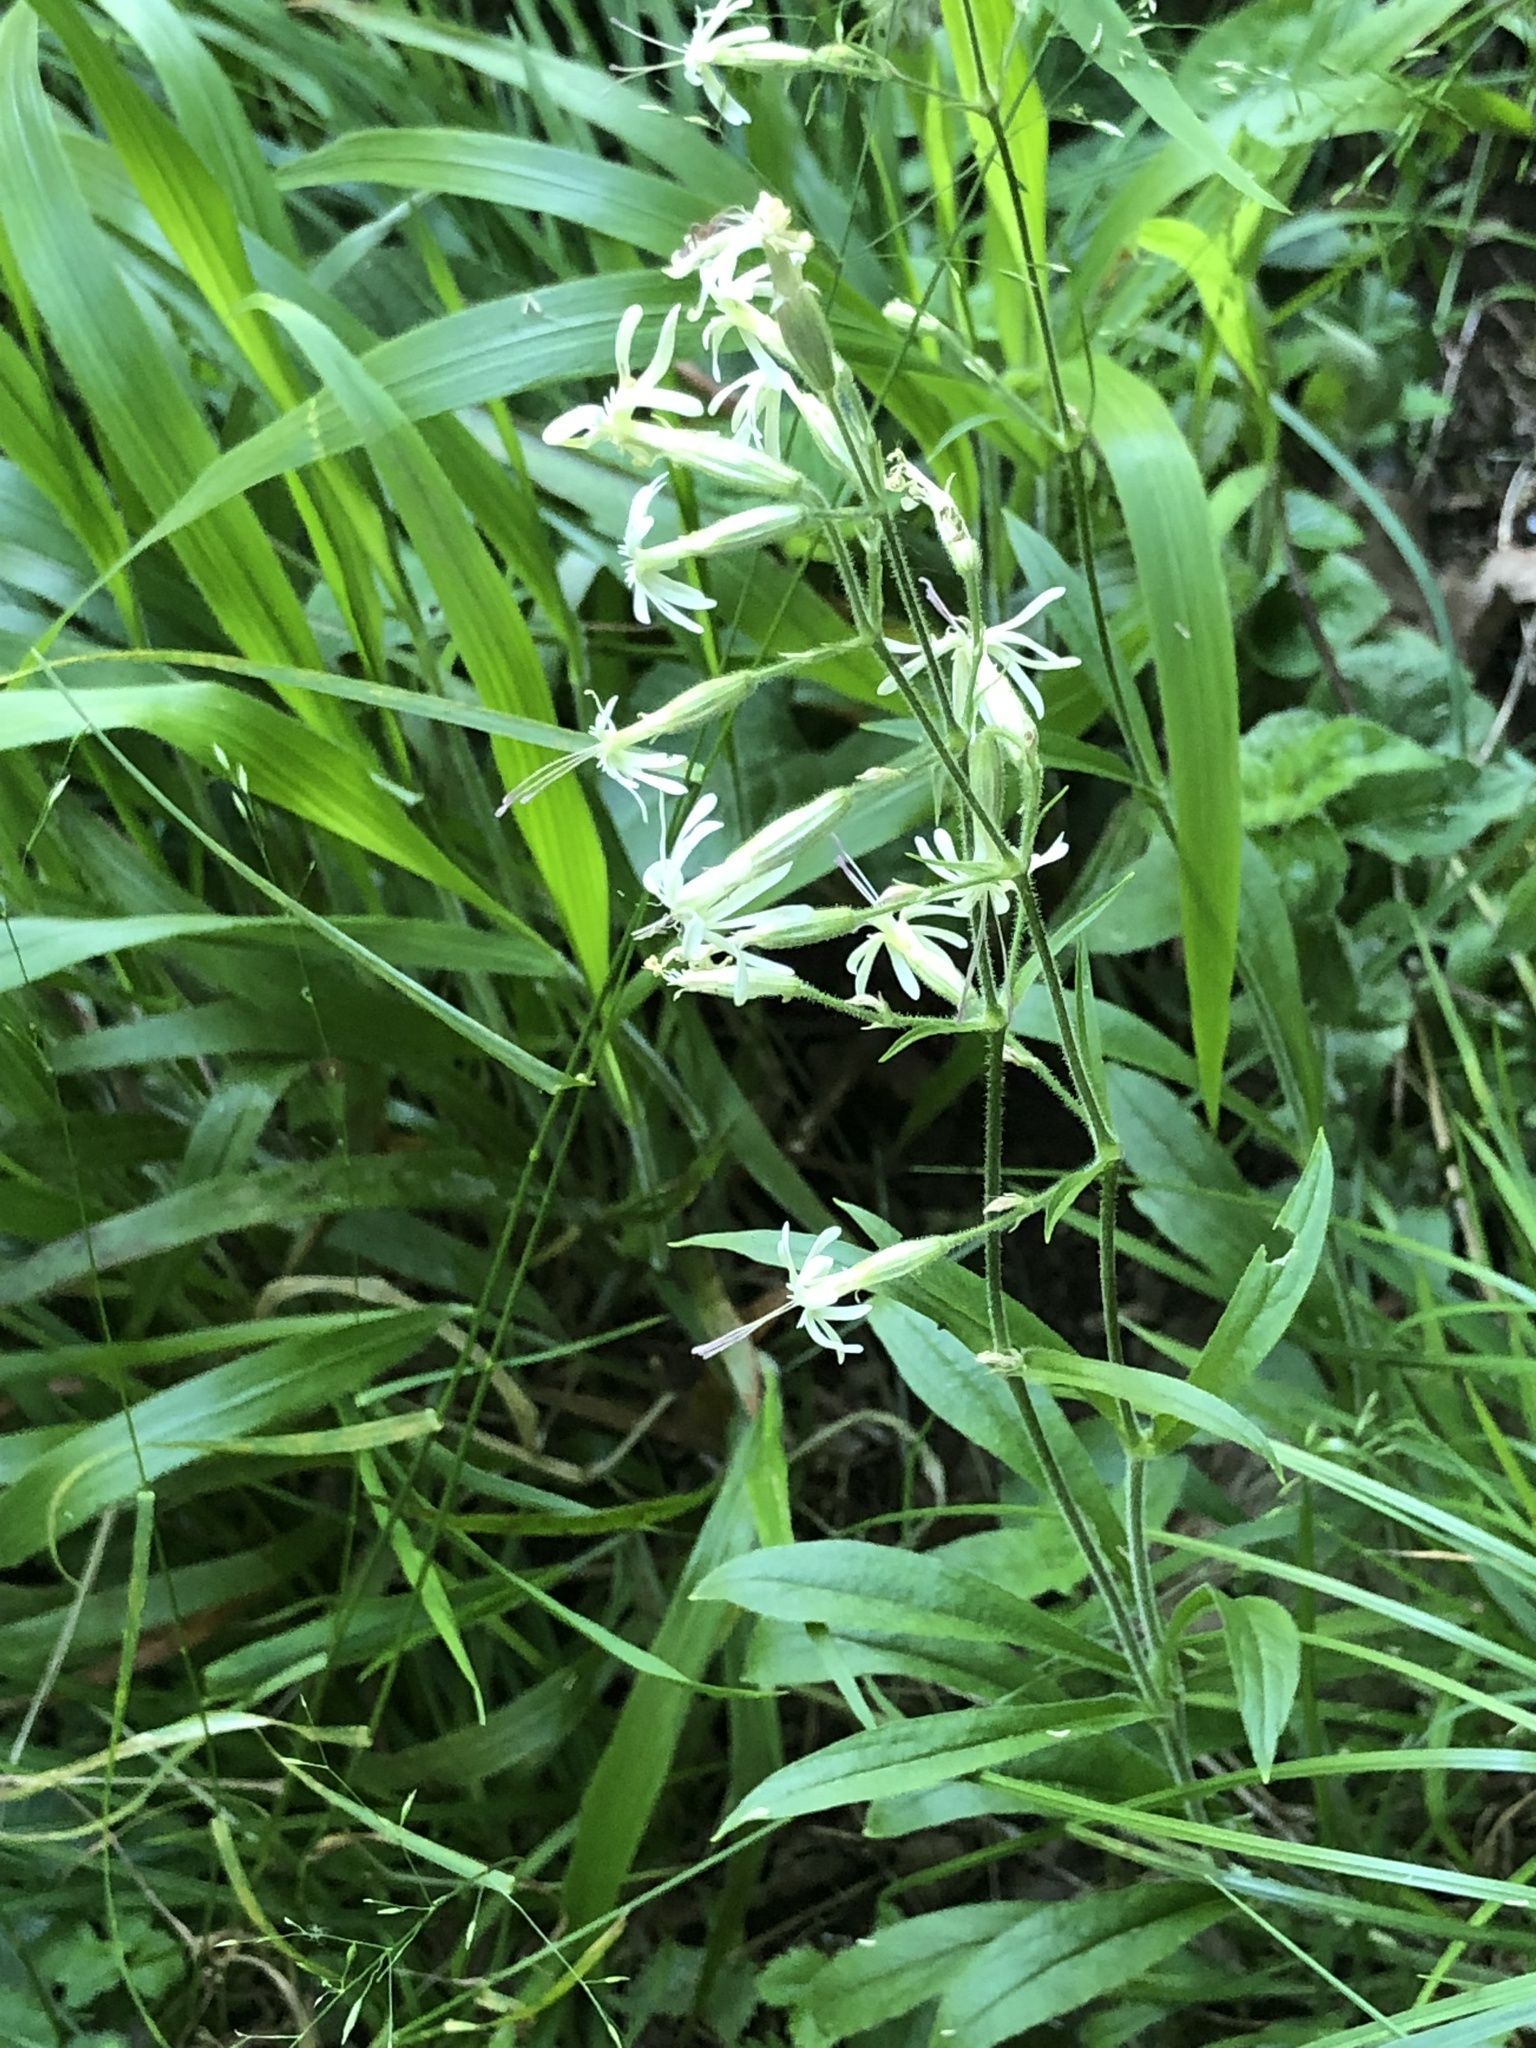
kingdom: Plantae
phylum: Tracheophyta
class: Magnoliopsida
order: Caryophyllales
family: Caryophyllaceae
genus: Silene
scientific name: Silene nutans
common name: Nottingham catchfly
